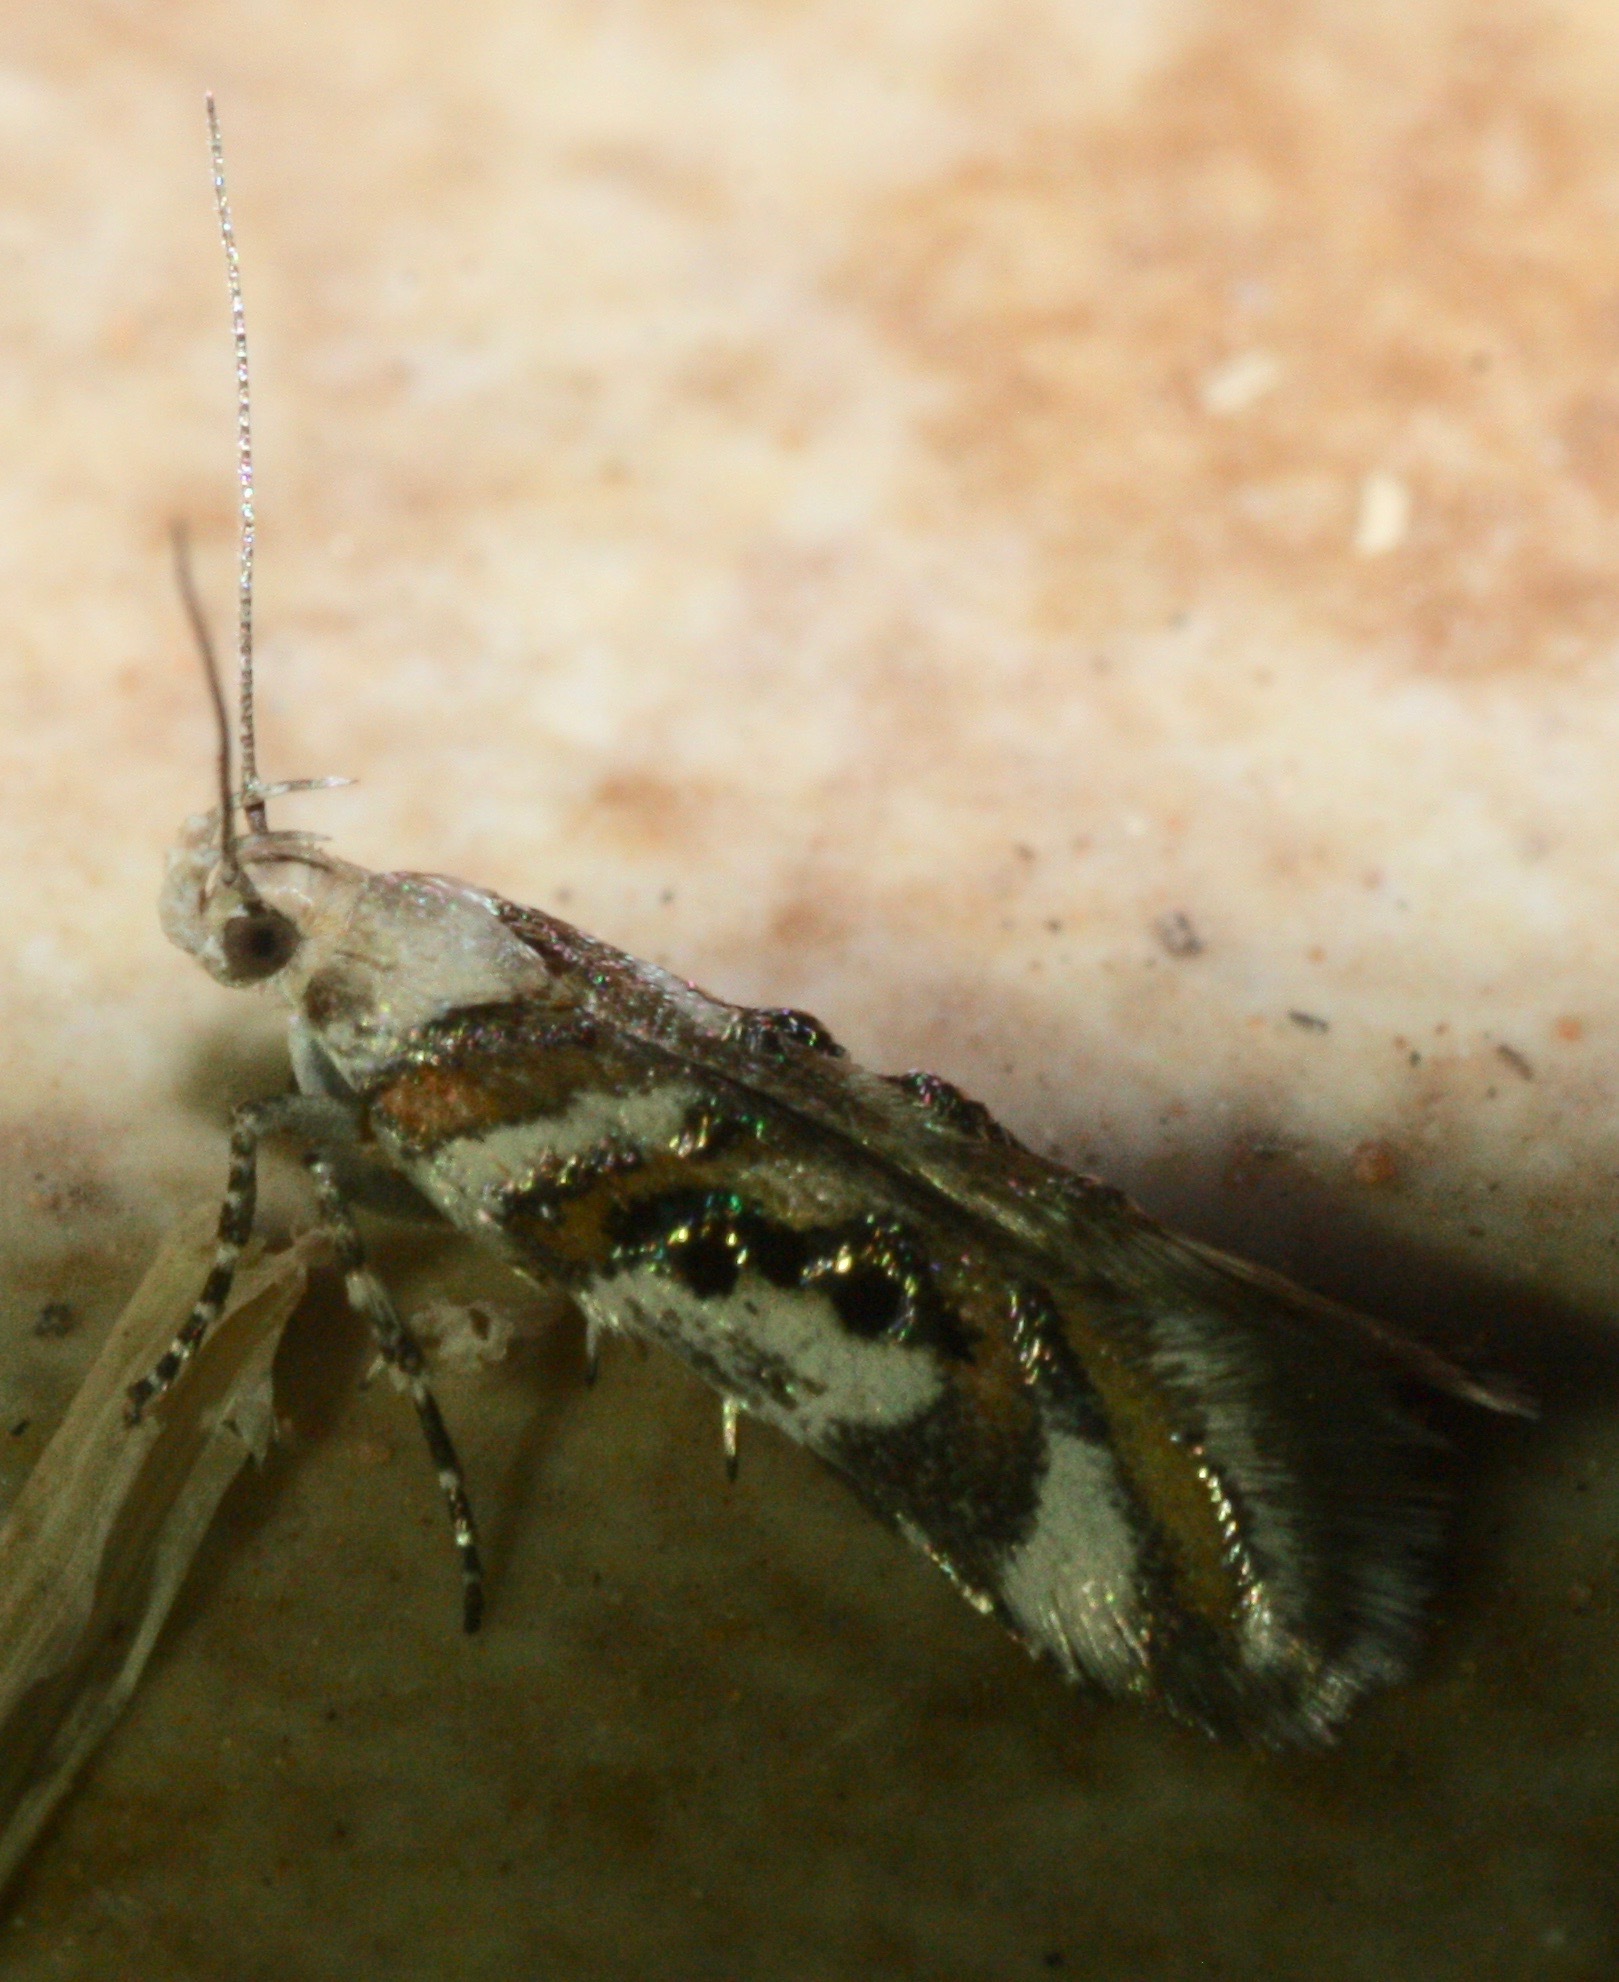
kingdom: Animalia
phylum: Arthropoda
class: Insecta
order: Lepidoptera
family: Gelechiidae
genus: Aristotelia
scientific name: Aristotelia elegantella
